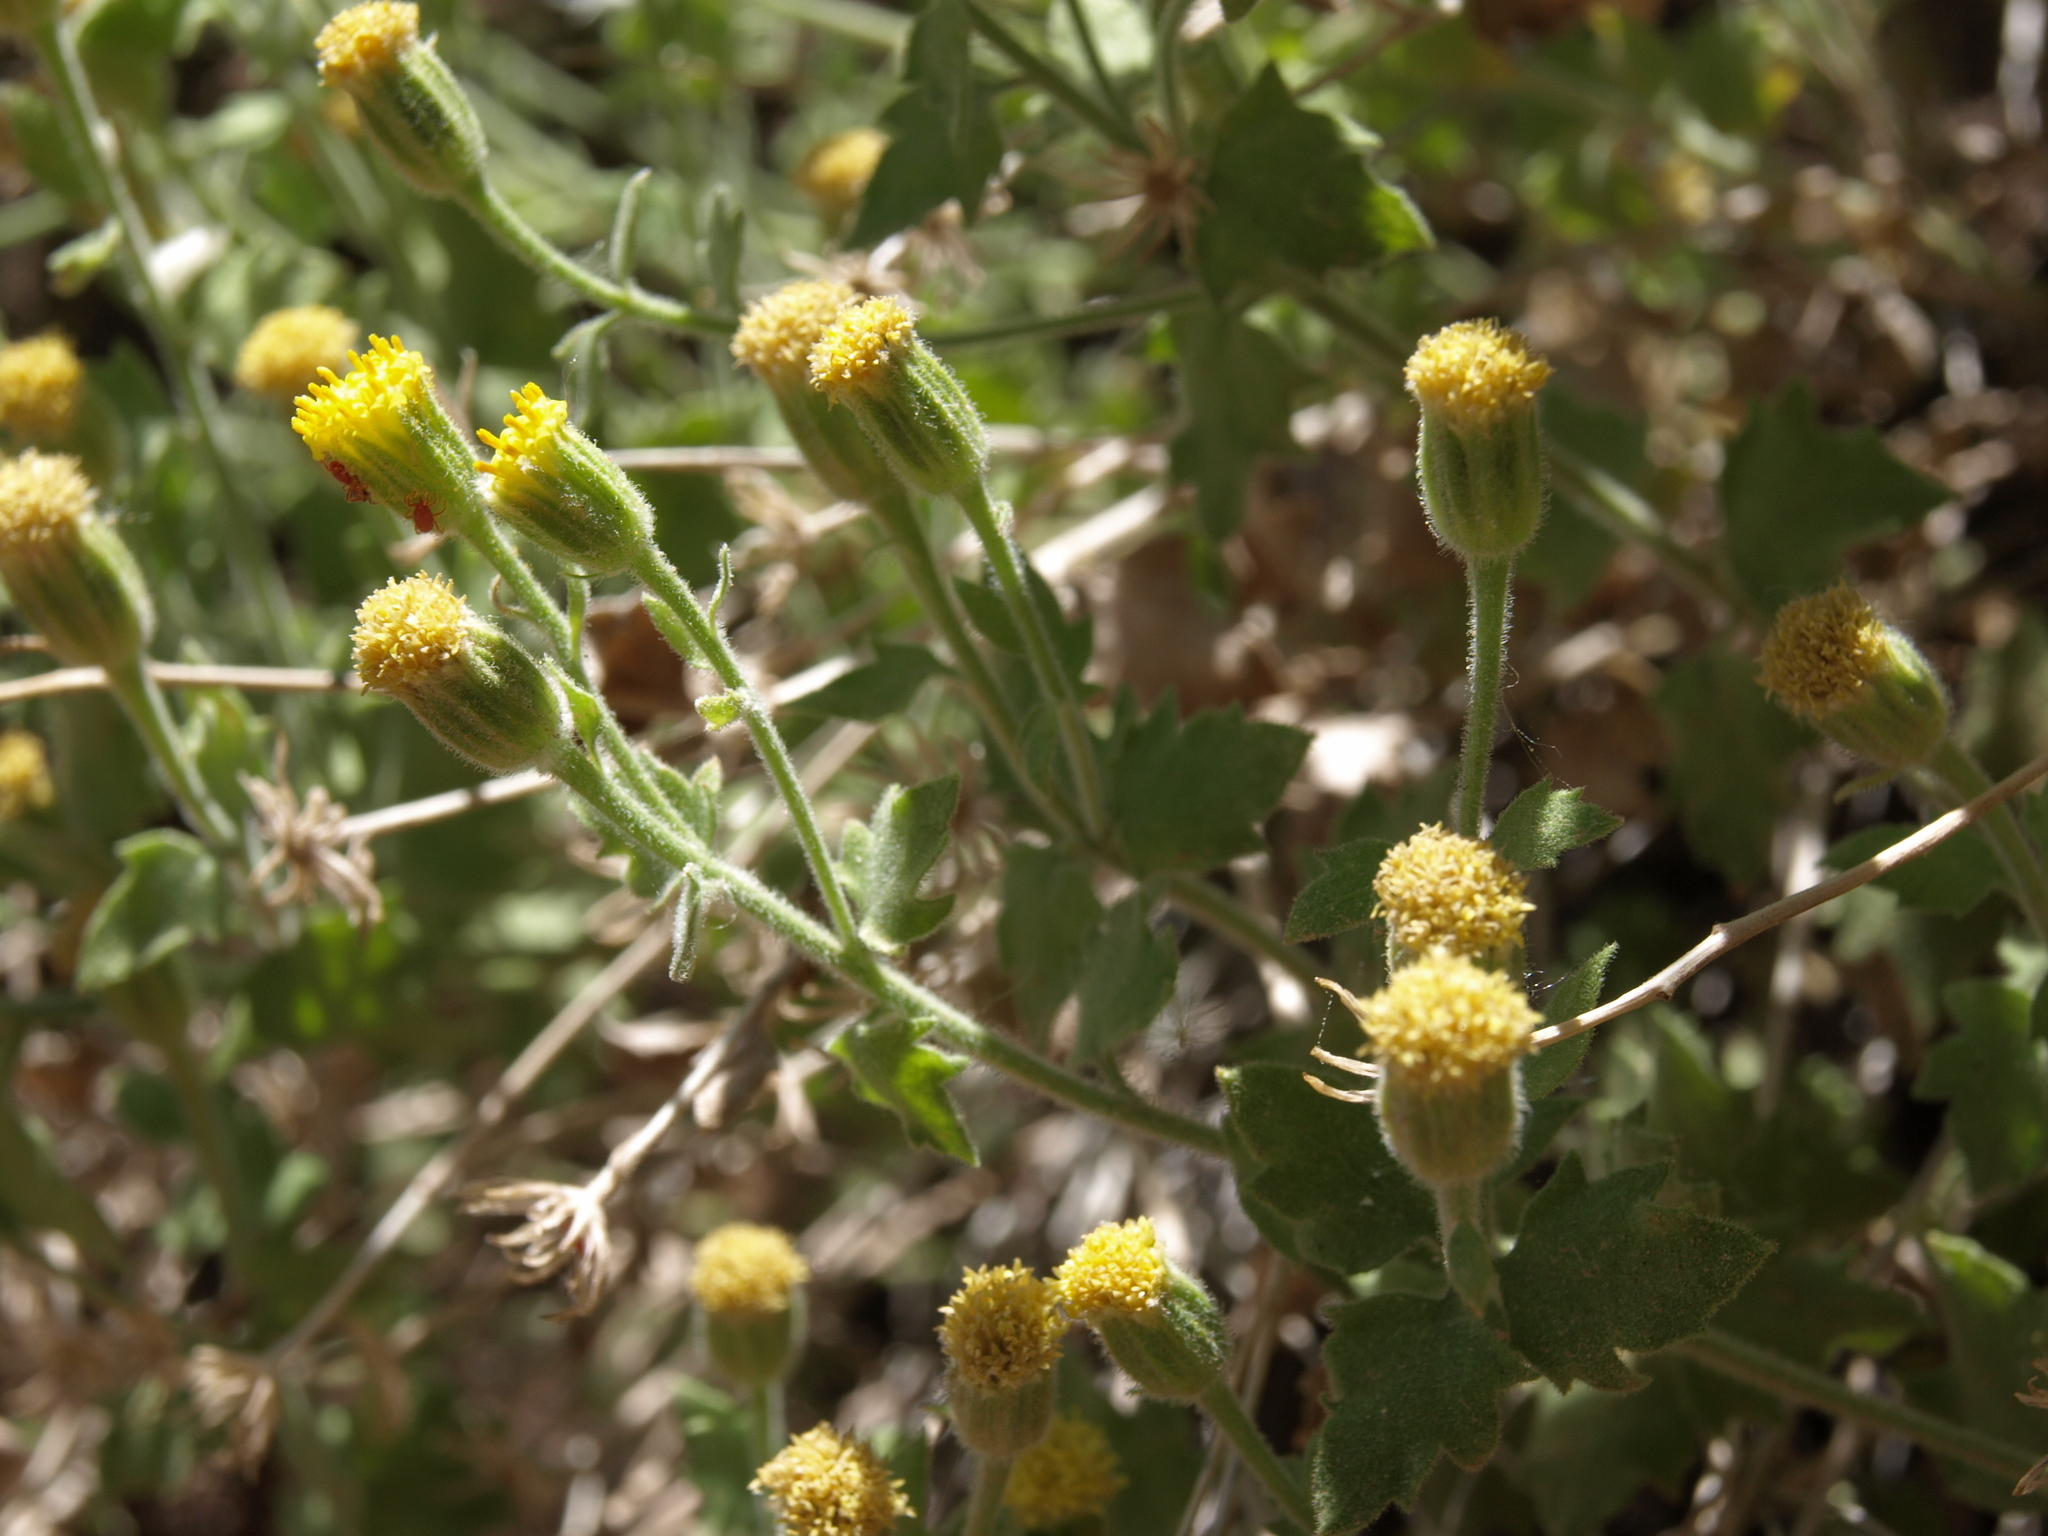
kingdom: Plantae
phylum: Tracheophyta
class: Magnoliopsida
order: Asterales
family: Asteraceae
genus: Laphamia
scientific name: Laphamia sanchezii
